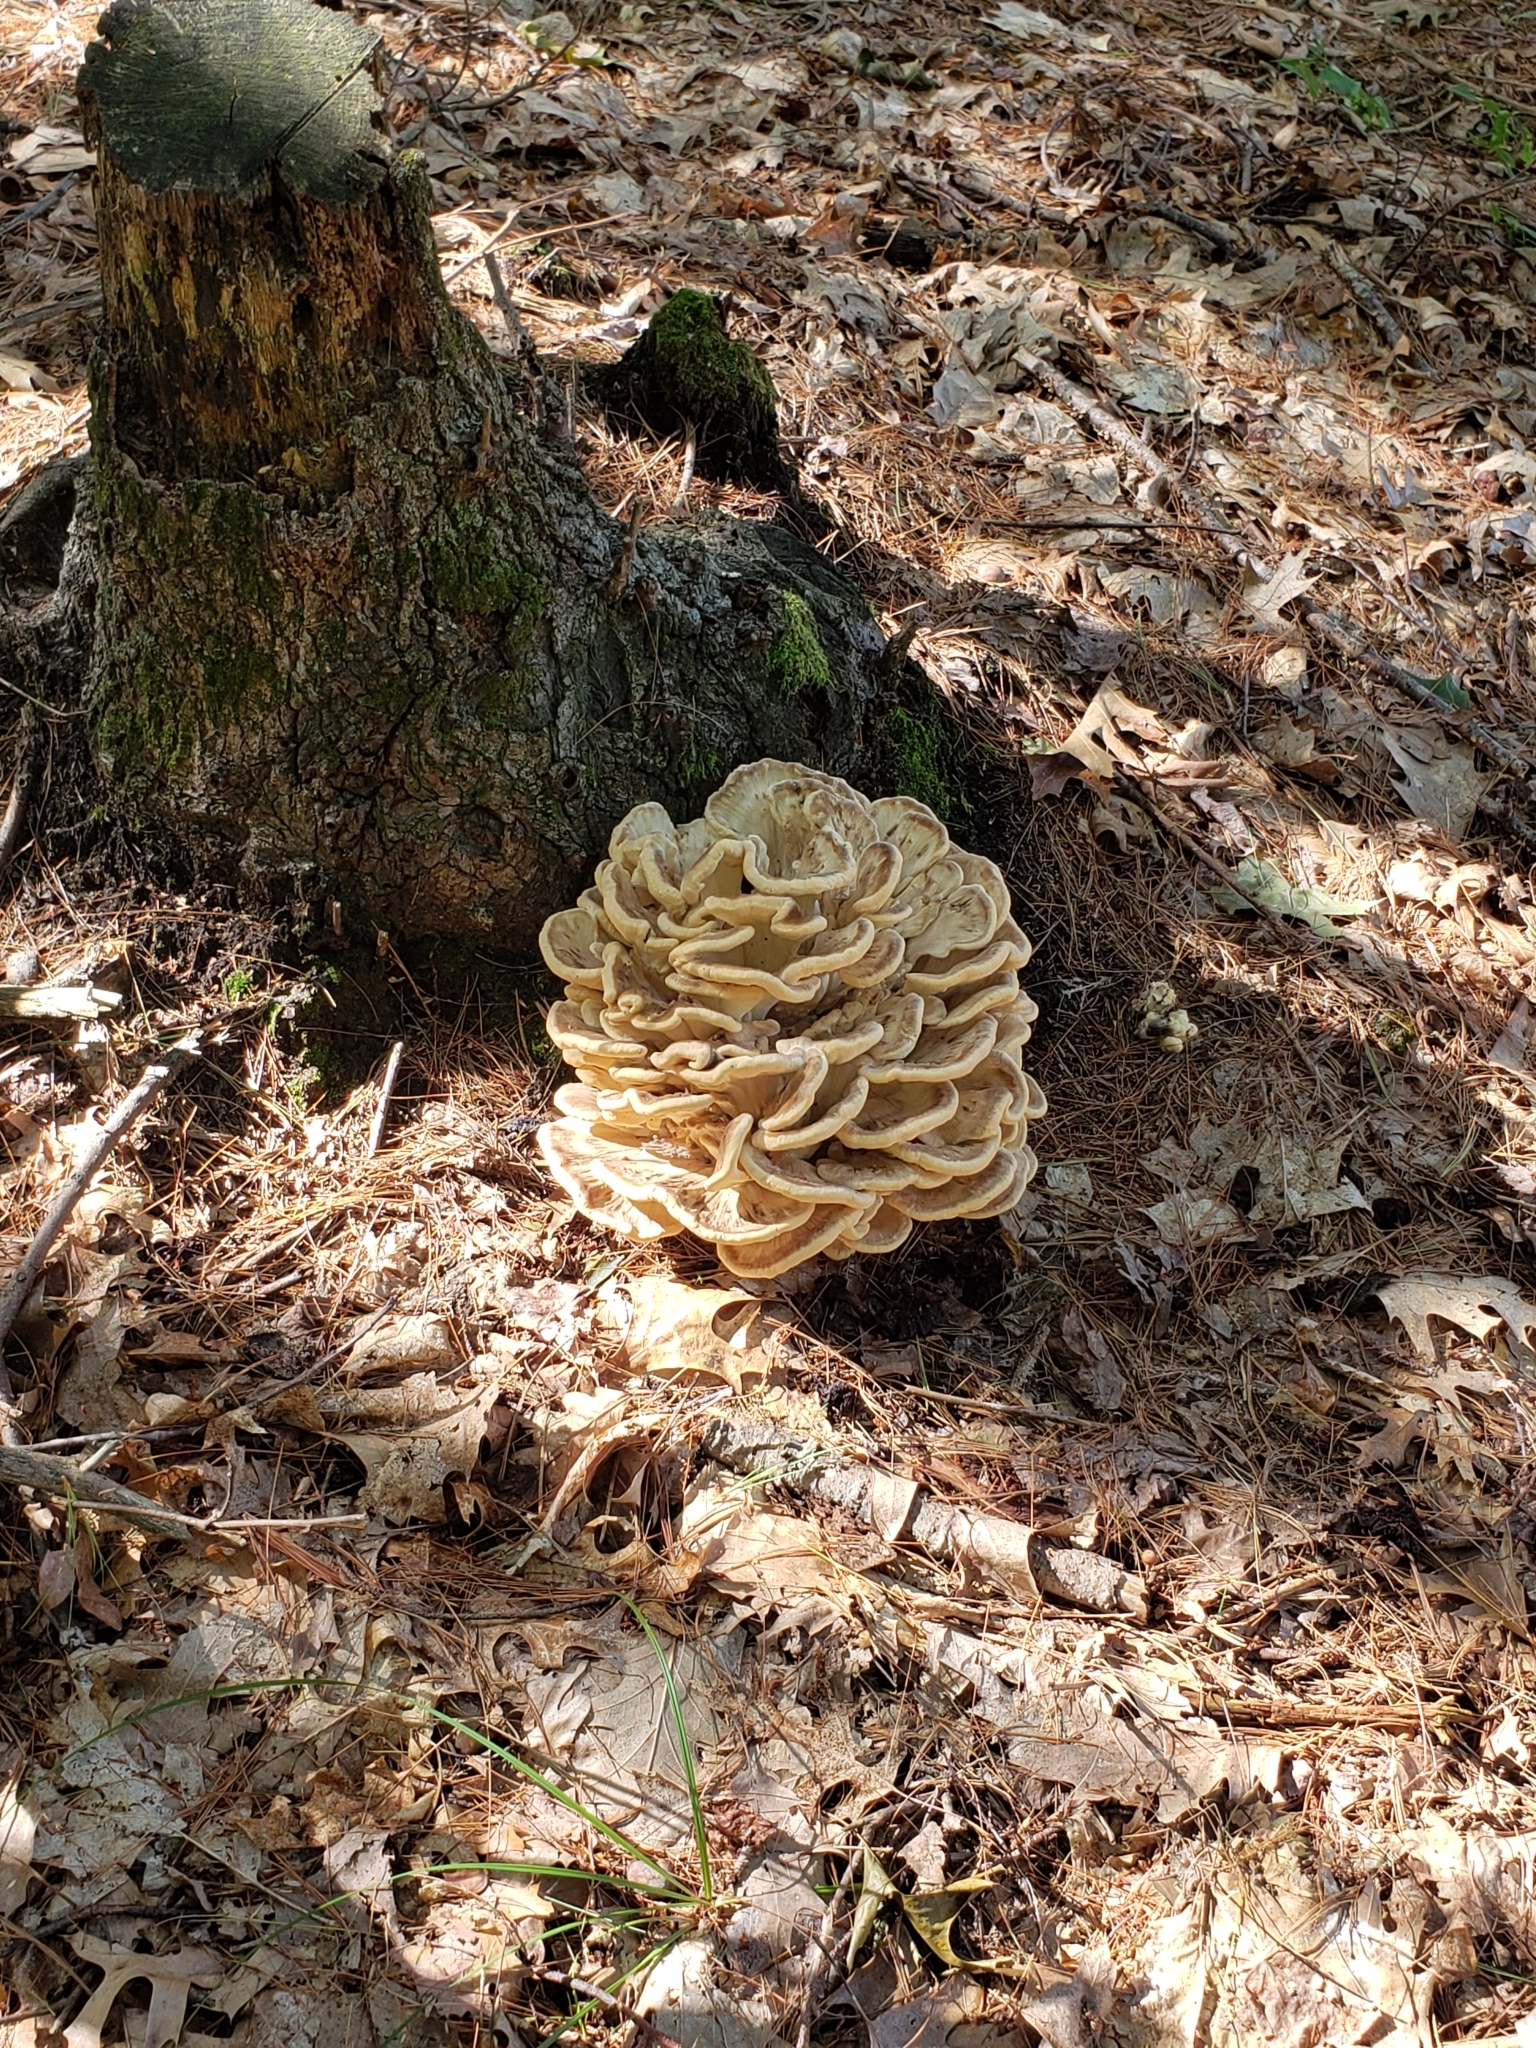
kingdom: Fungi
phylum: Basidiomycota
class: Agaricomycetes
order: Polyporales
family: Meripilaceae
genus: Meripilus
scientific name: Meripilus sumstinei
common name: Black-staining polypore
